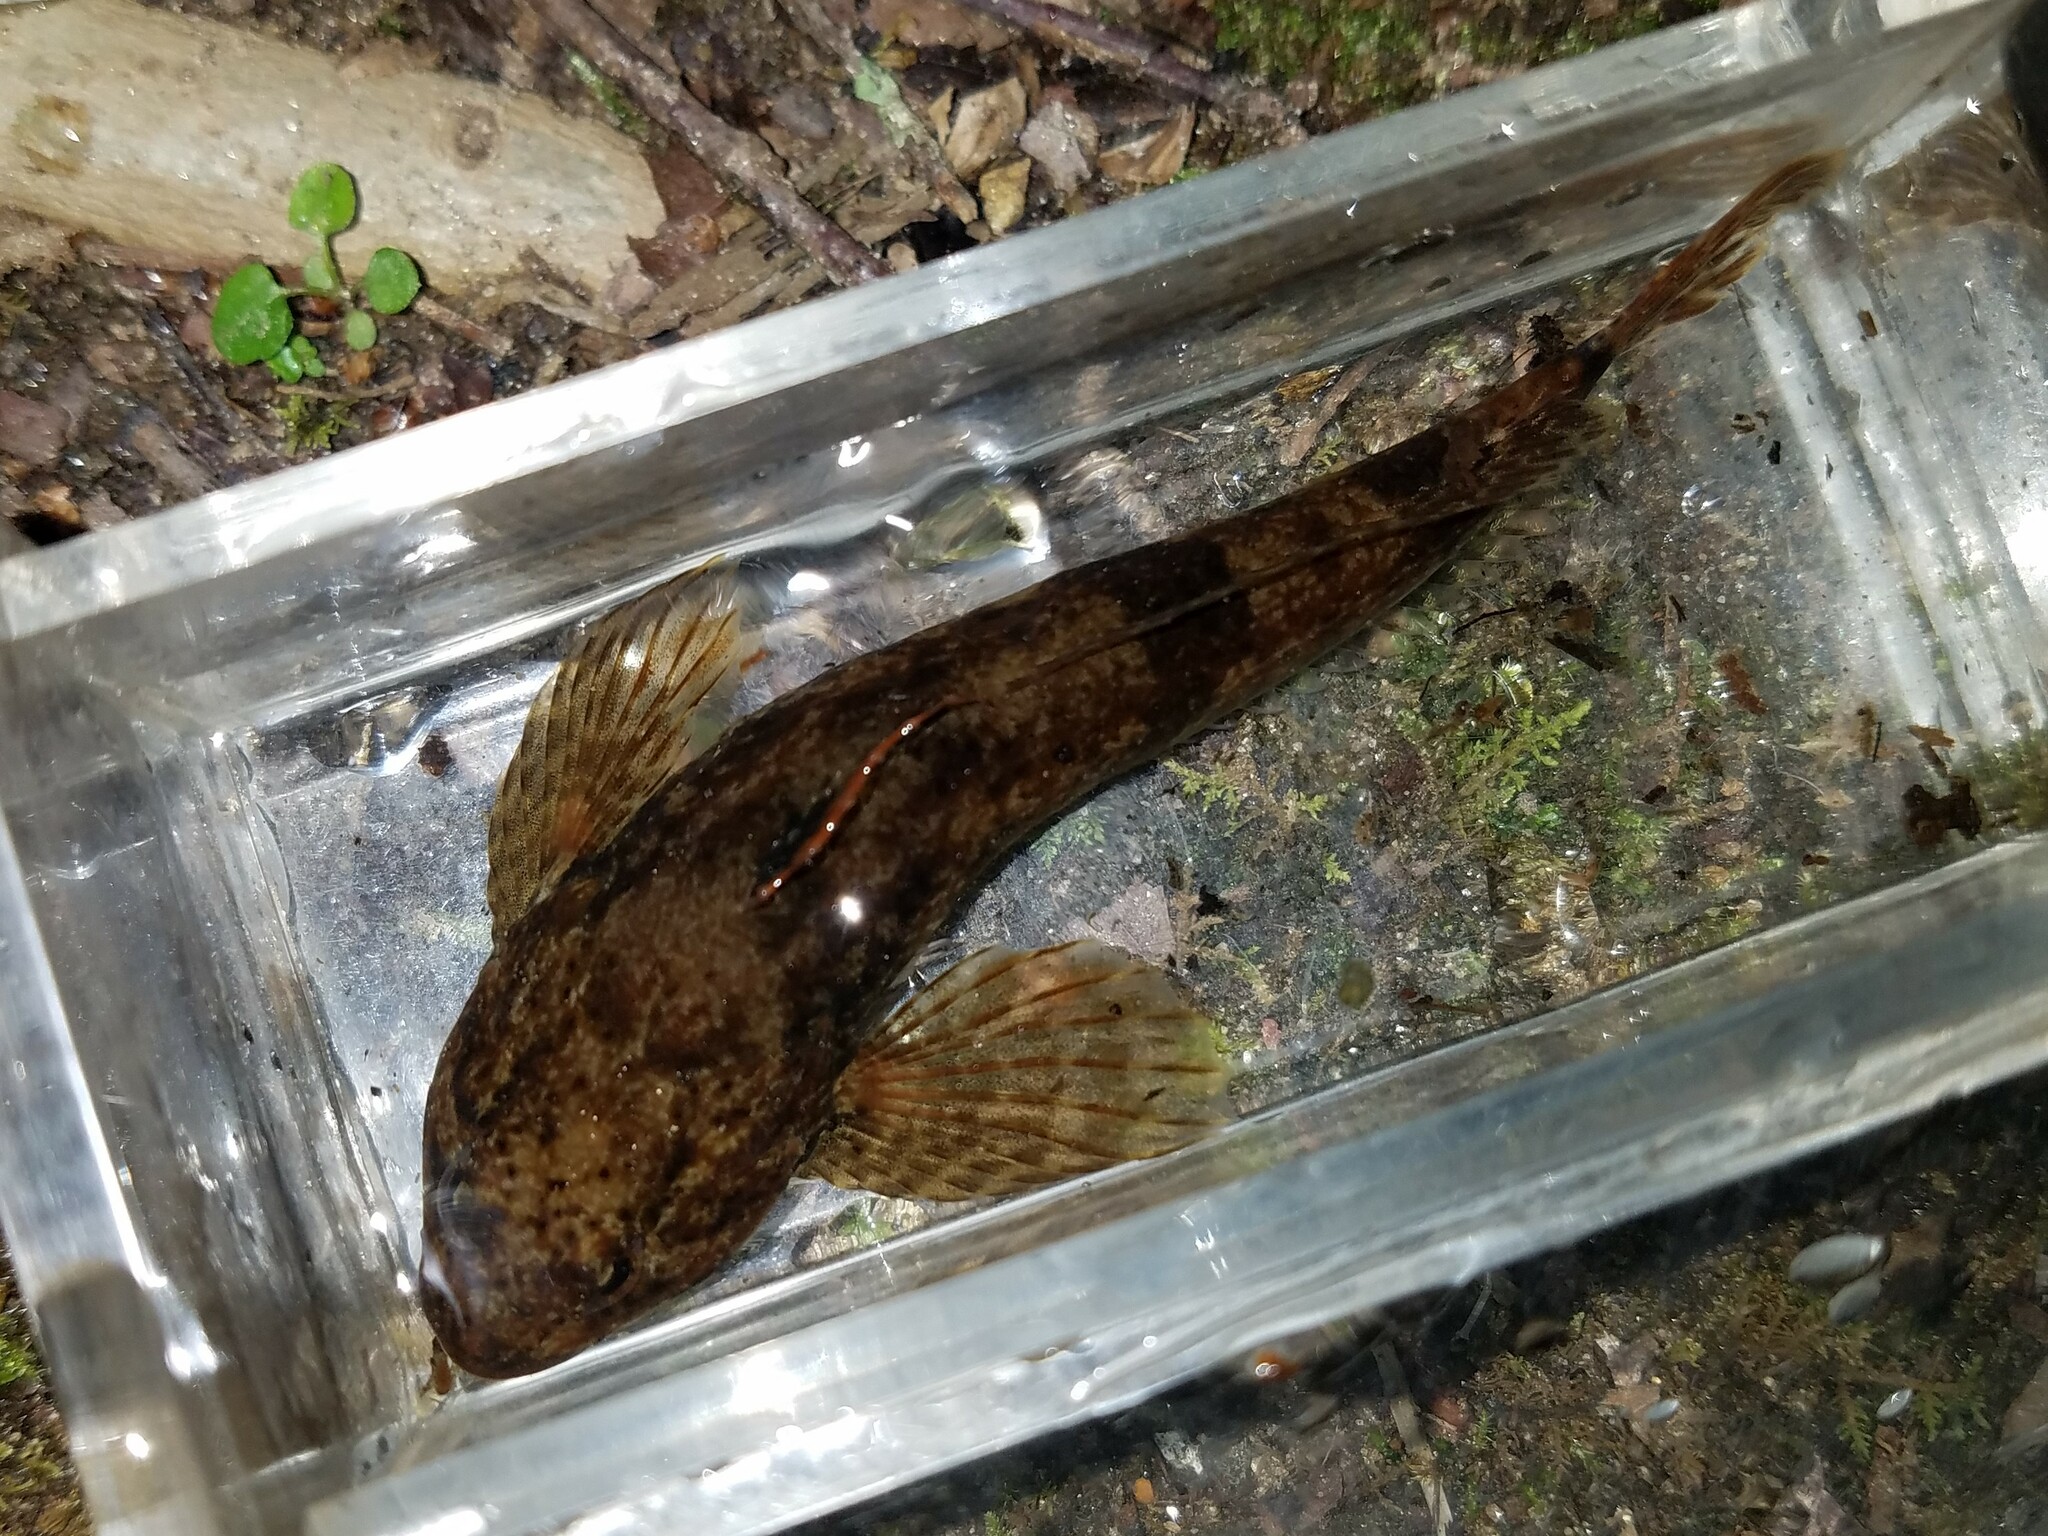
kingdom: Animalia
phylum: Chordata
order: Scorpaeniformes
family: Cottidae
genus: Cottus
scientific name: Cottus bairdii
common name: Mottled sculpin
